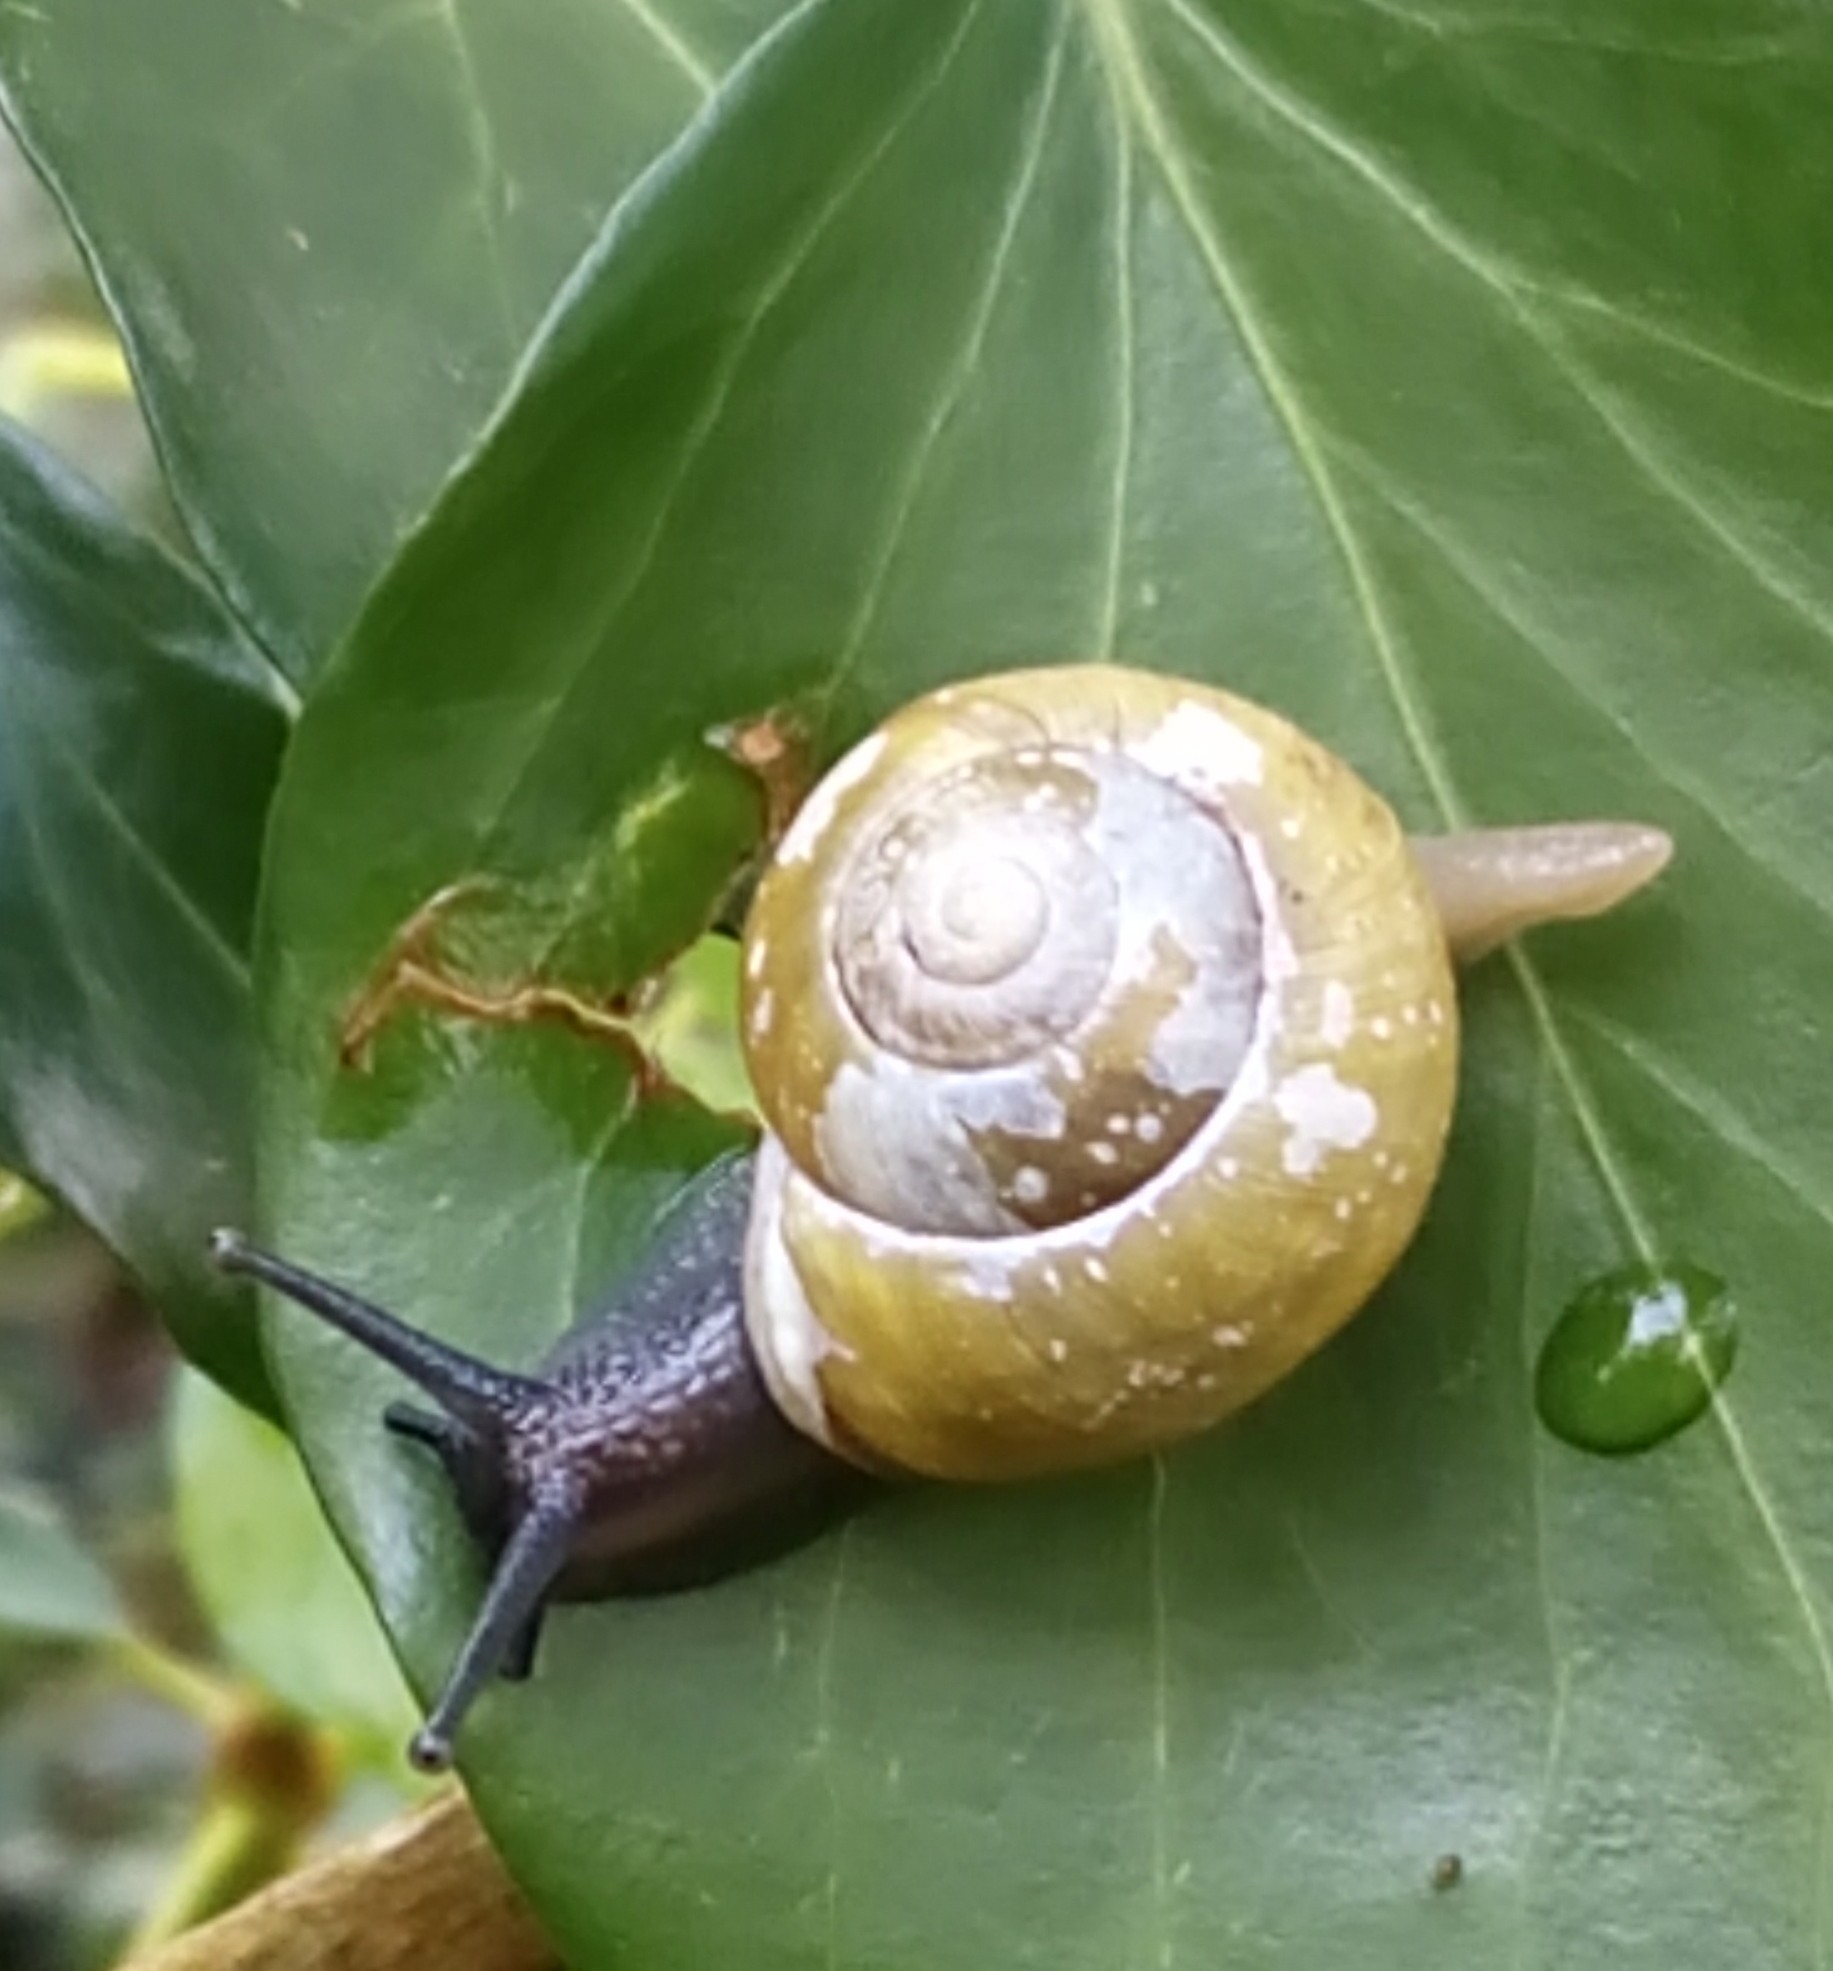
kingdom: Animalia
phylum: Mollusca
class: Gastropoda
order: Stylommatophora
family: Helicidae
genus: Cepaea
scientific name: Cepaea hortensis
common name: White-lip gardensnail
